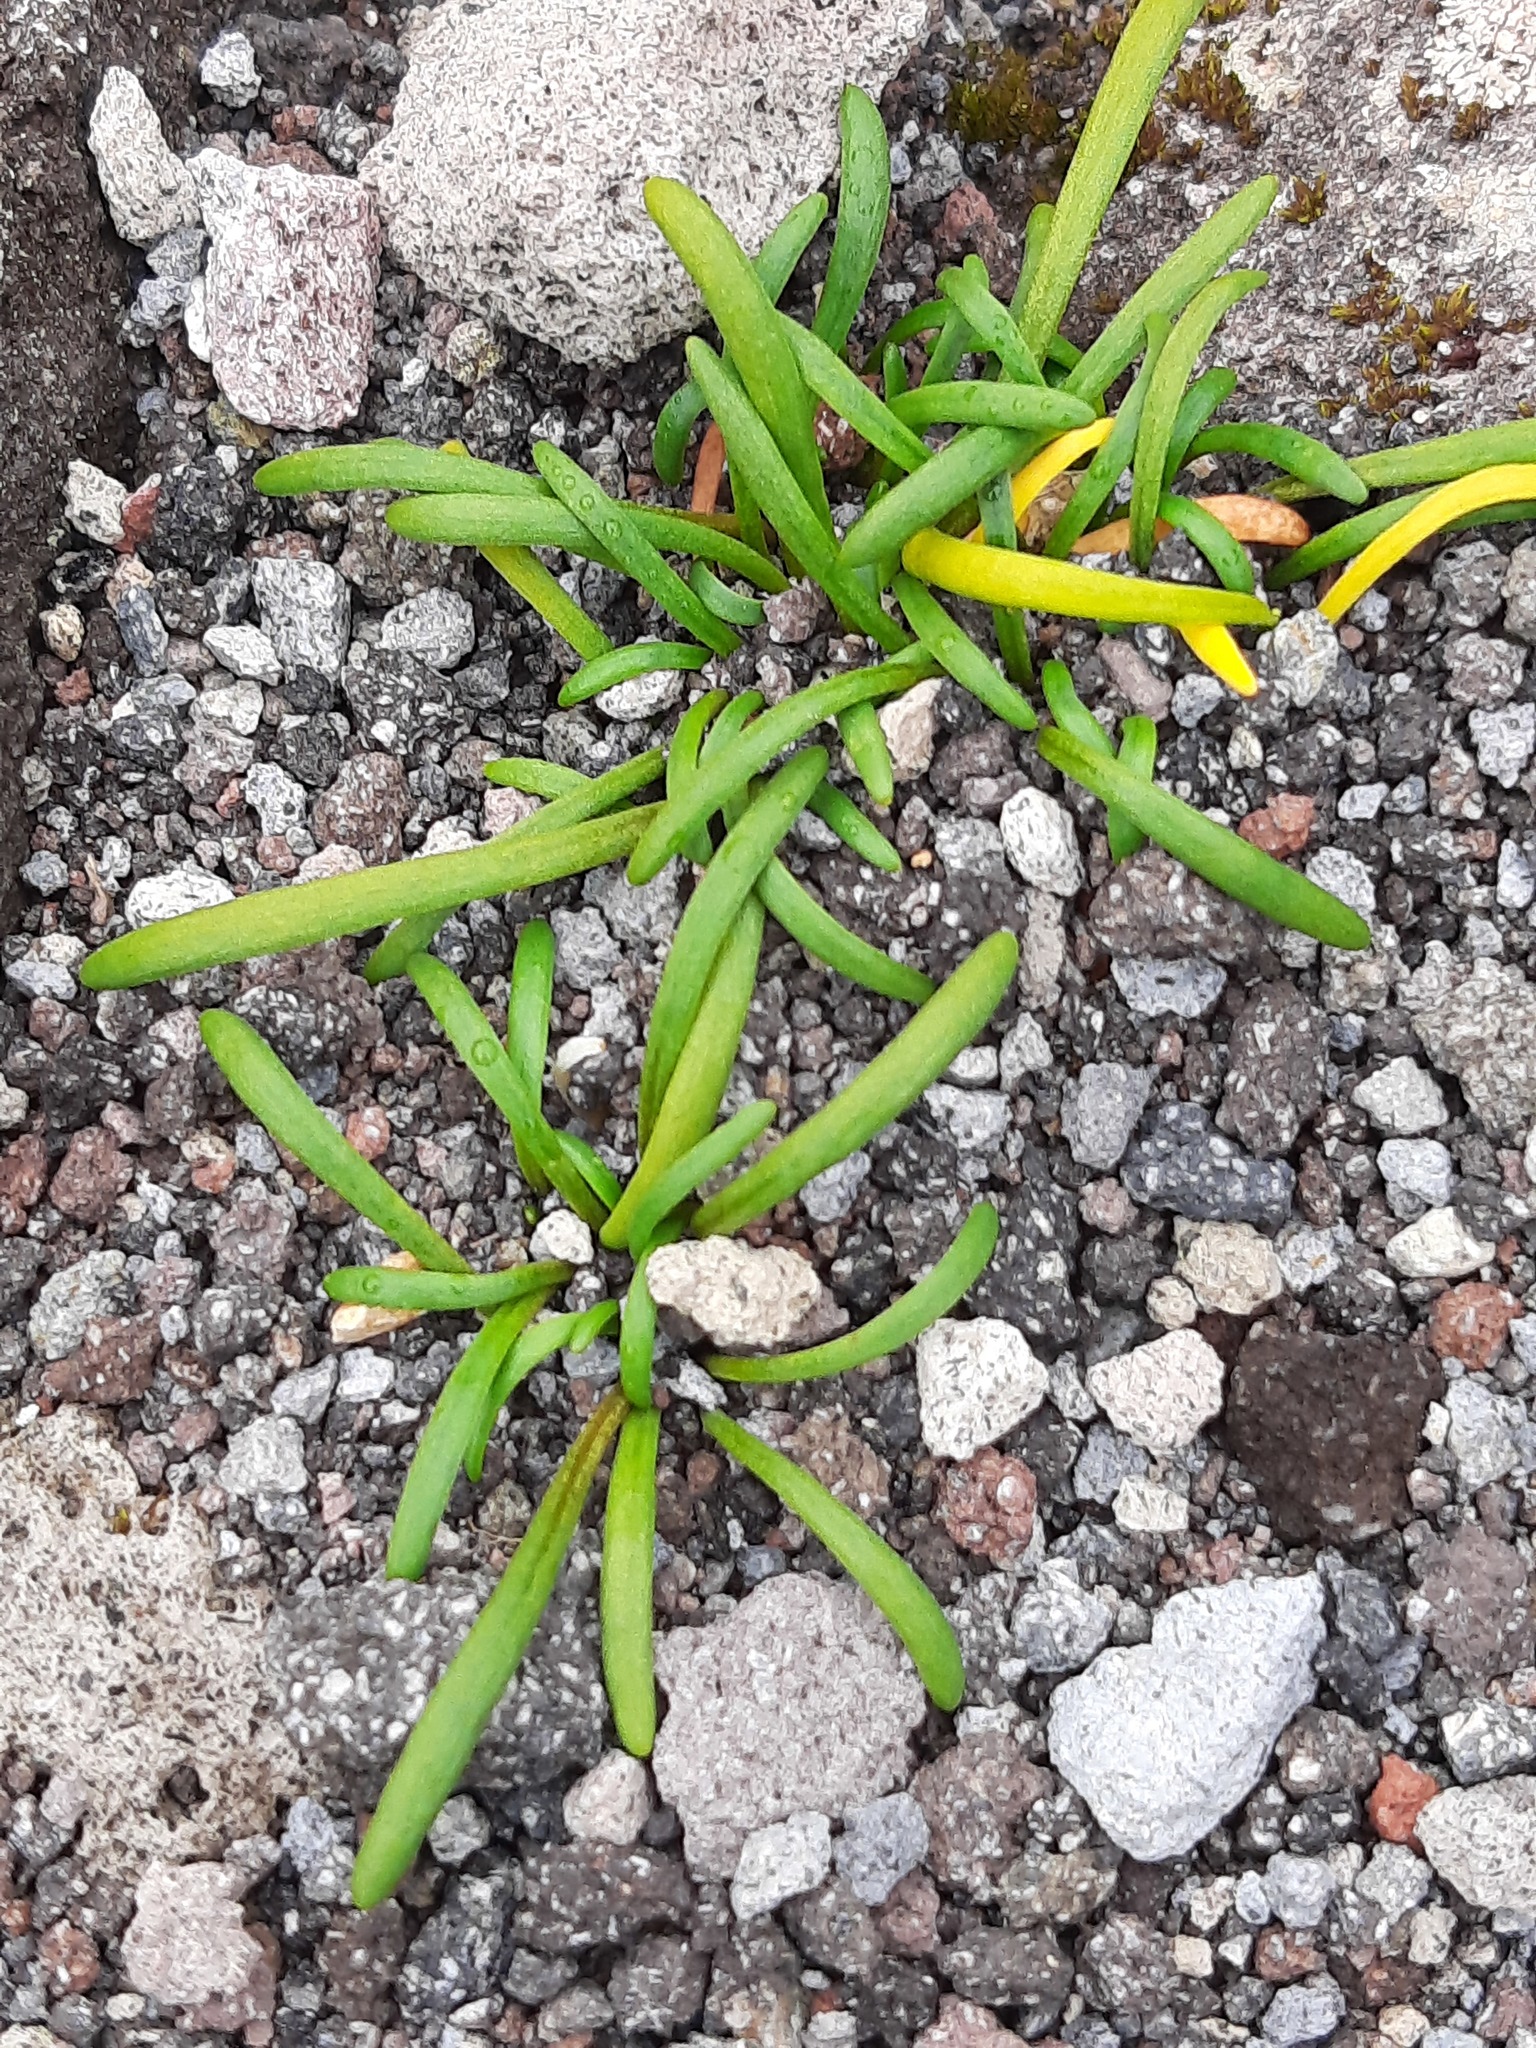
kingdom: Plantae
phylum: Tracheophyta
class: Magnoliopsida
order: Caryophyllales
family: Montiaceae
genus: Montia
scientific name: Montia calycina
